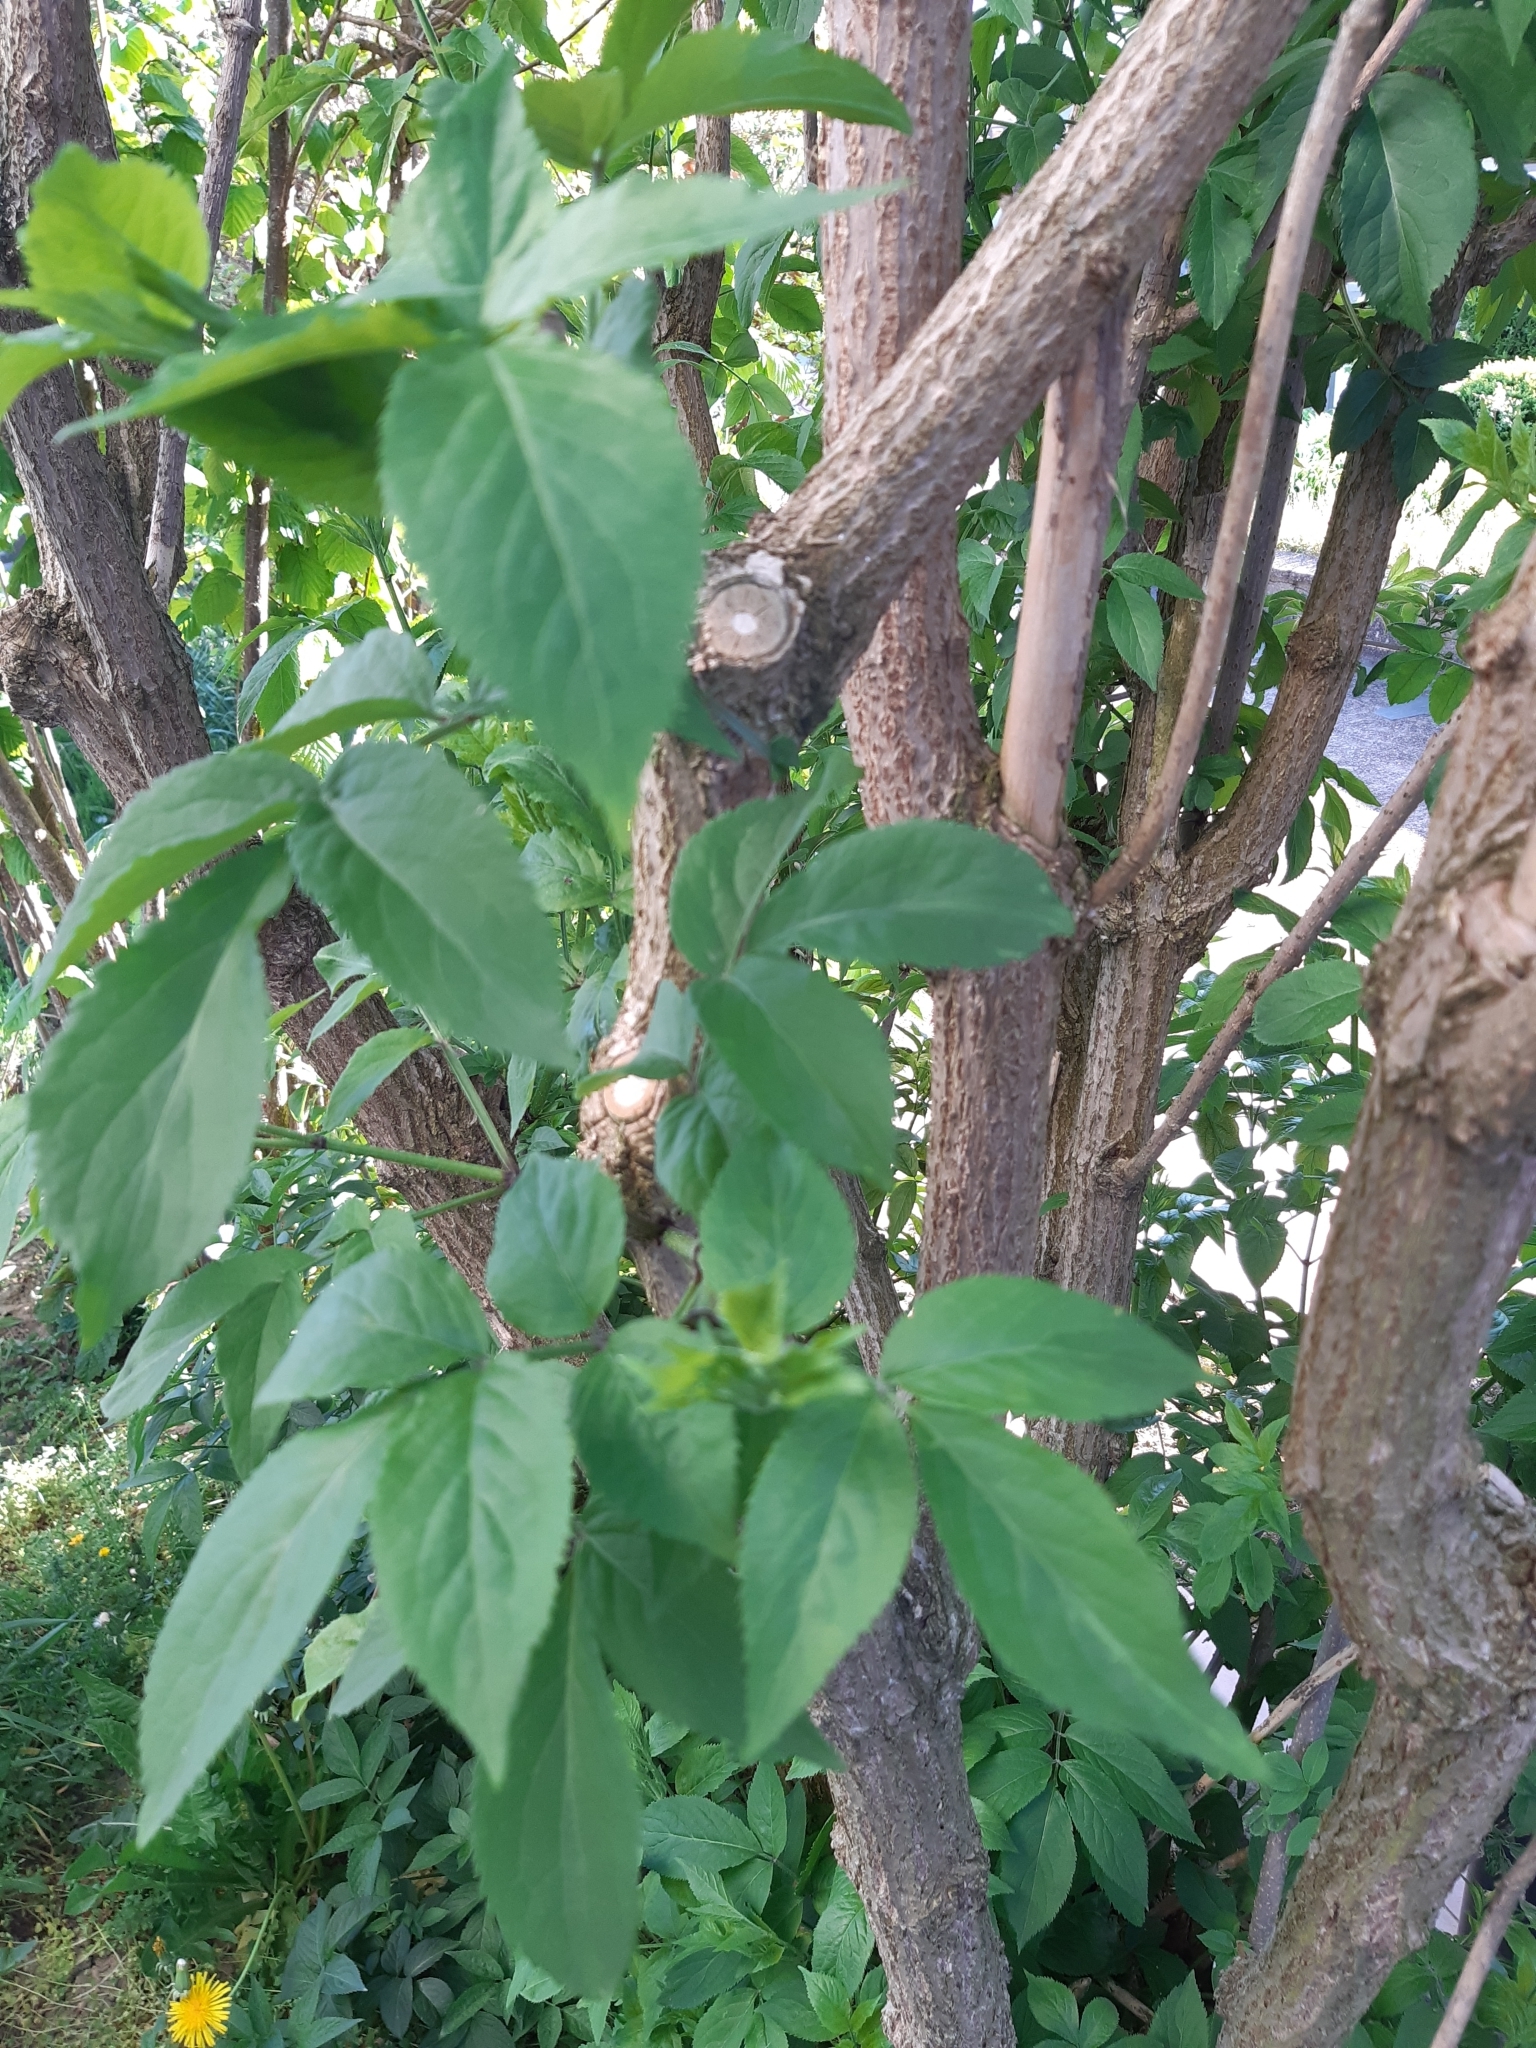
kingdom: Plantae
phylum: Tracheophyta
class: Magnoliopsida
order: Dipsacales
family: Viburnaceae
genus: Sambucus
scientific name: Sambucus nigra
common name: Elder
